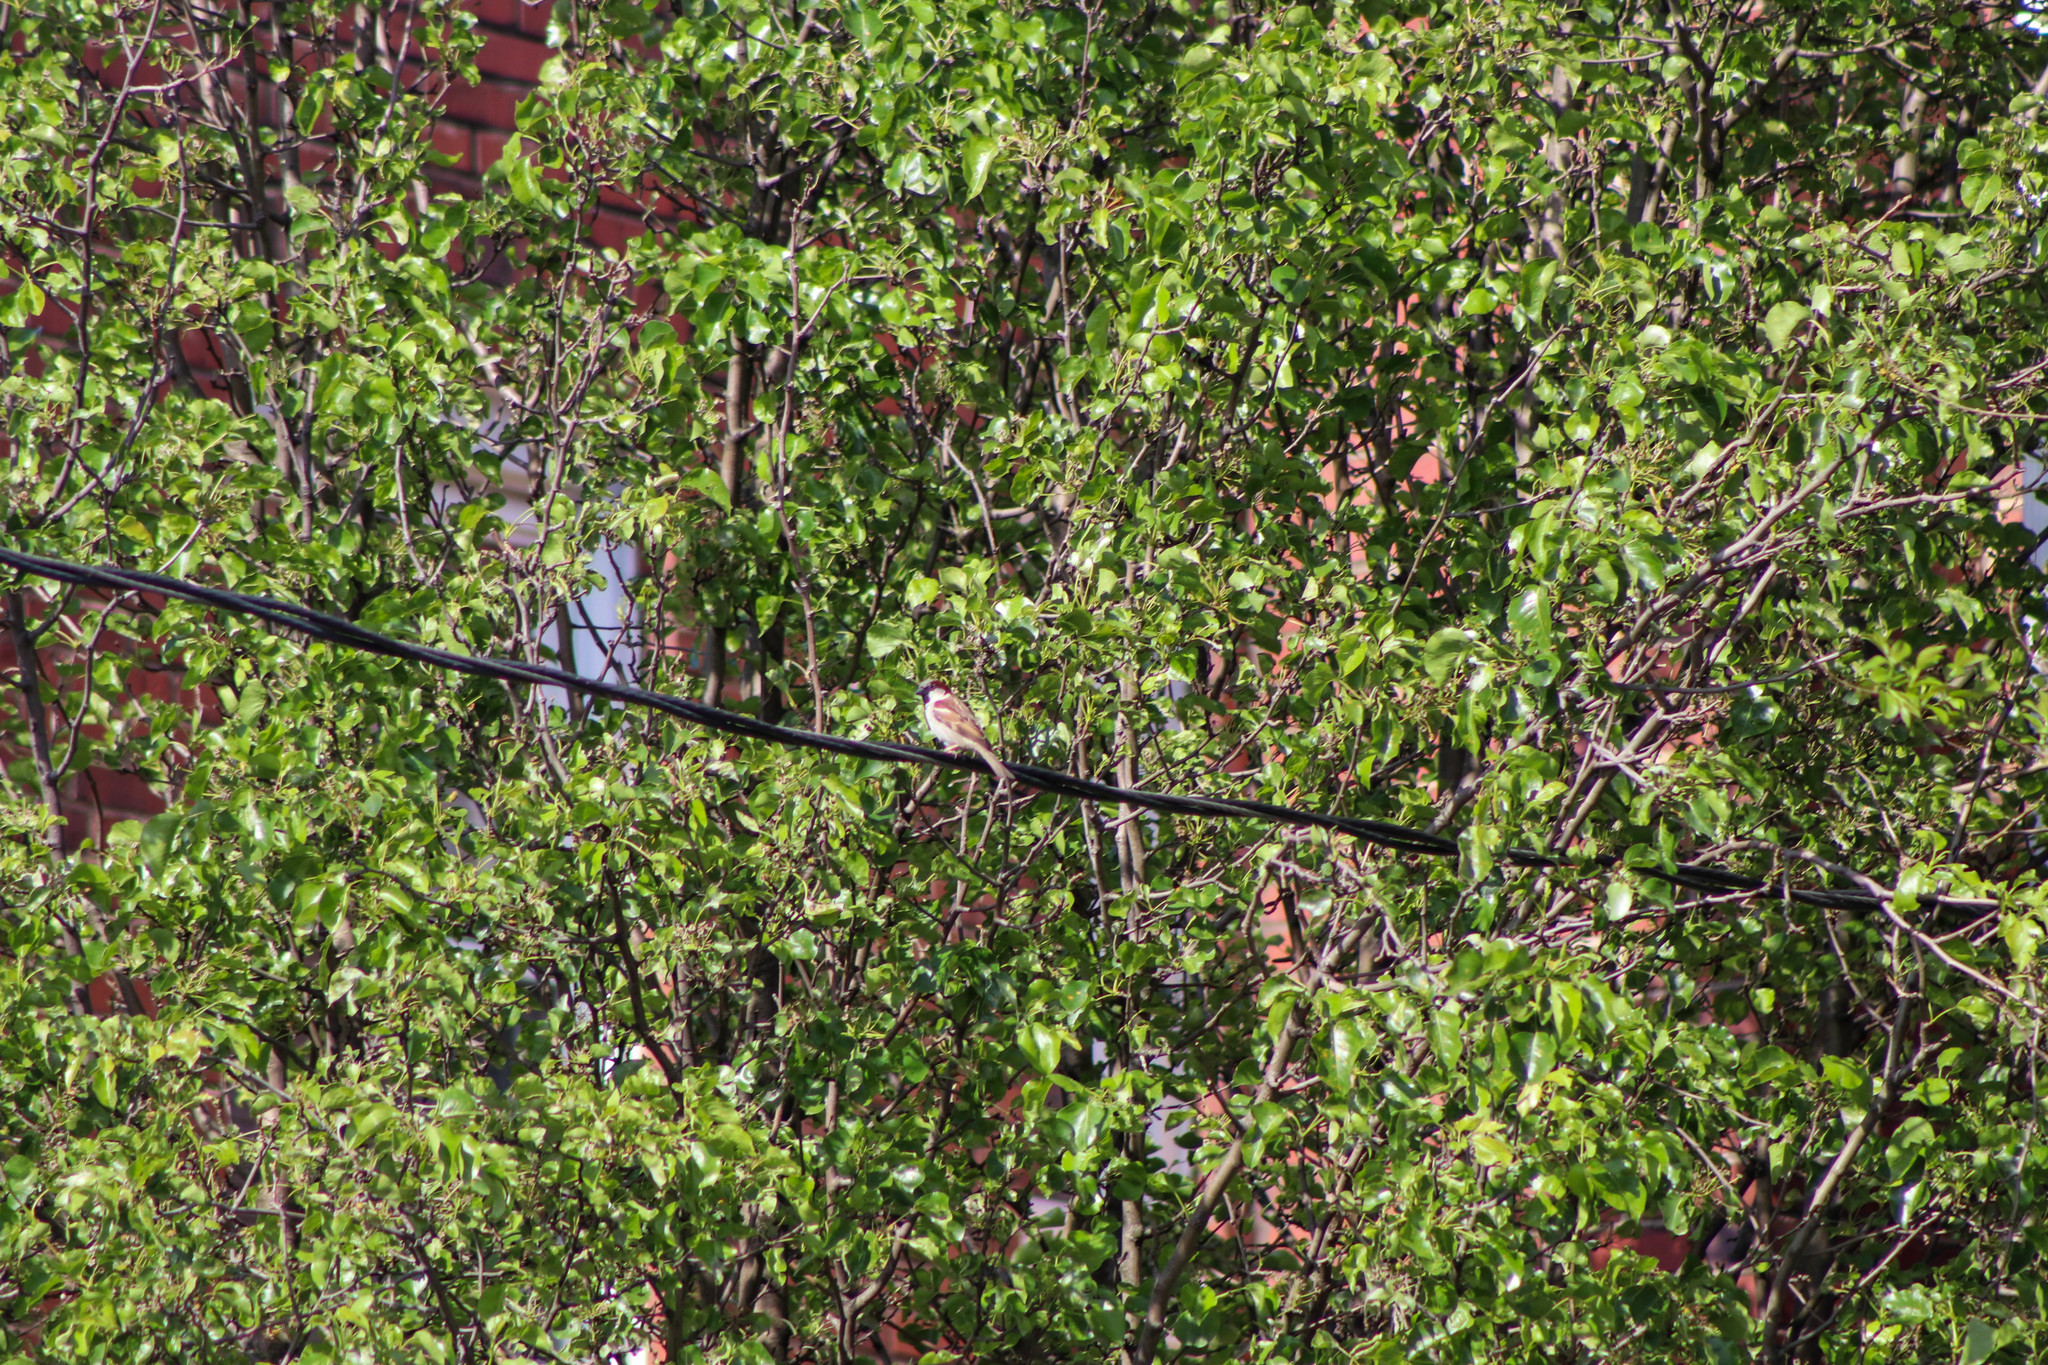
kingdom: Animalia
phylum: Chordata
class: Aves
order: Passeriformes
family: Passeridae
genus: Passer
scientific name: Passer domesticus
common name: House sparrow
